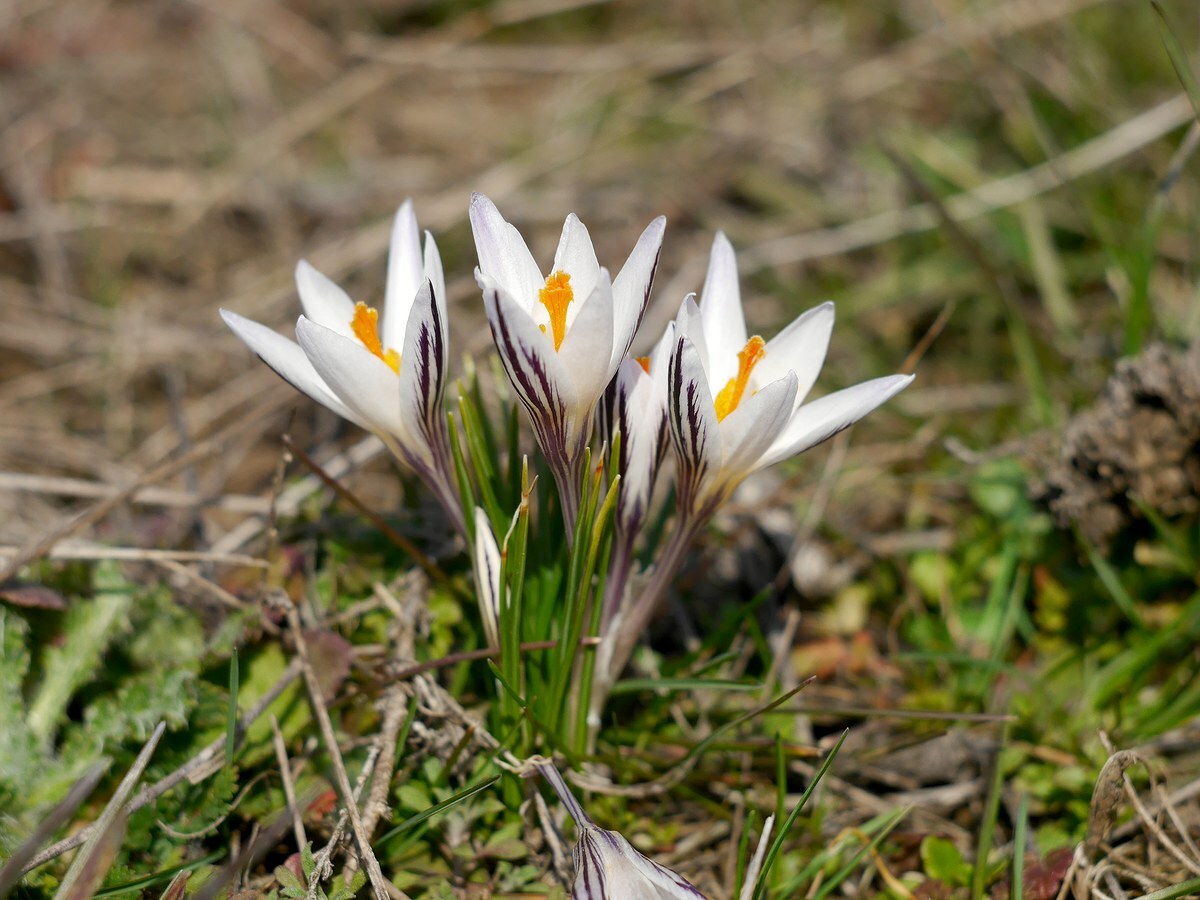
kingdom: Plantae
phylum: Tracheophyta
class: Liliopsida
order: Asparagales
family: Iridaceae
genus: Crocus
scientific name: Crocus reticulatus
